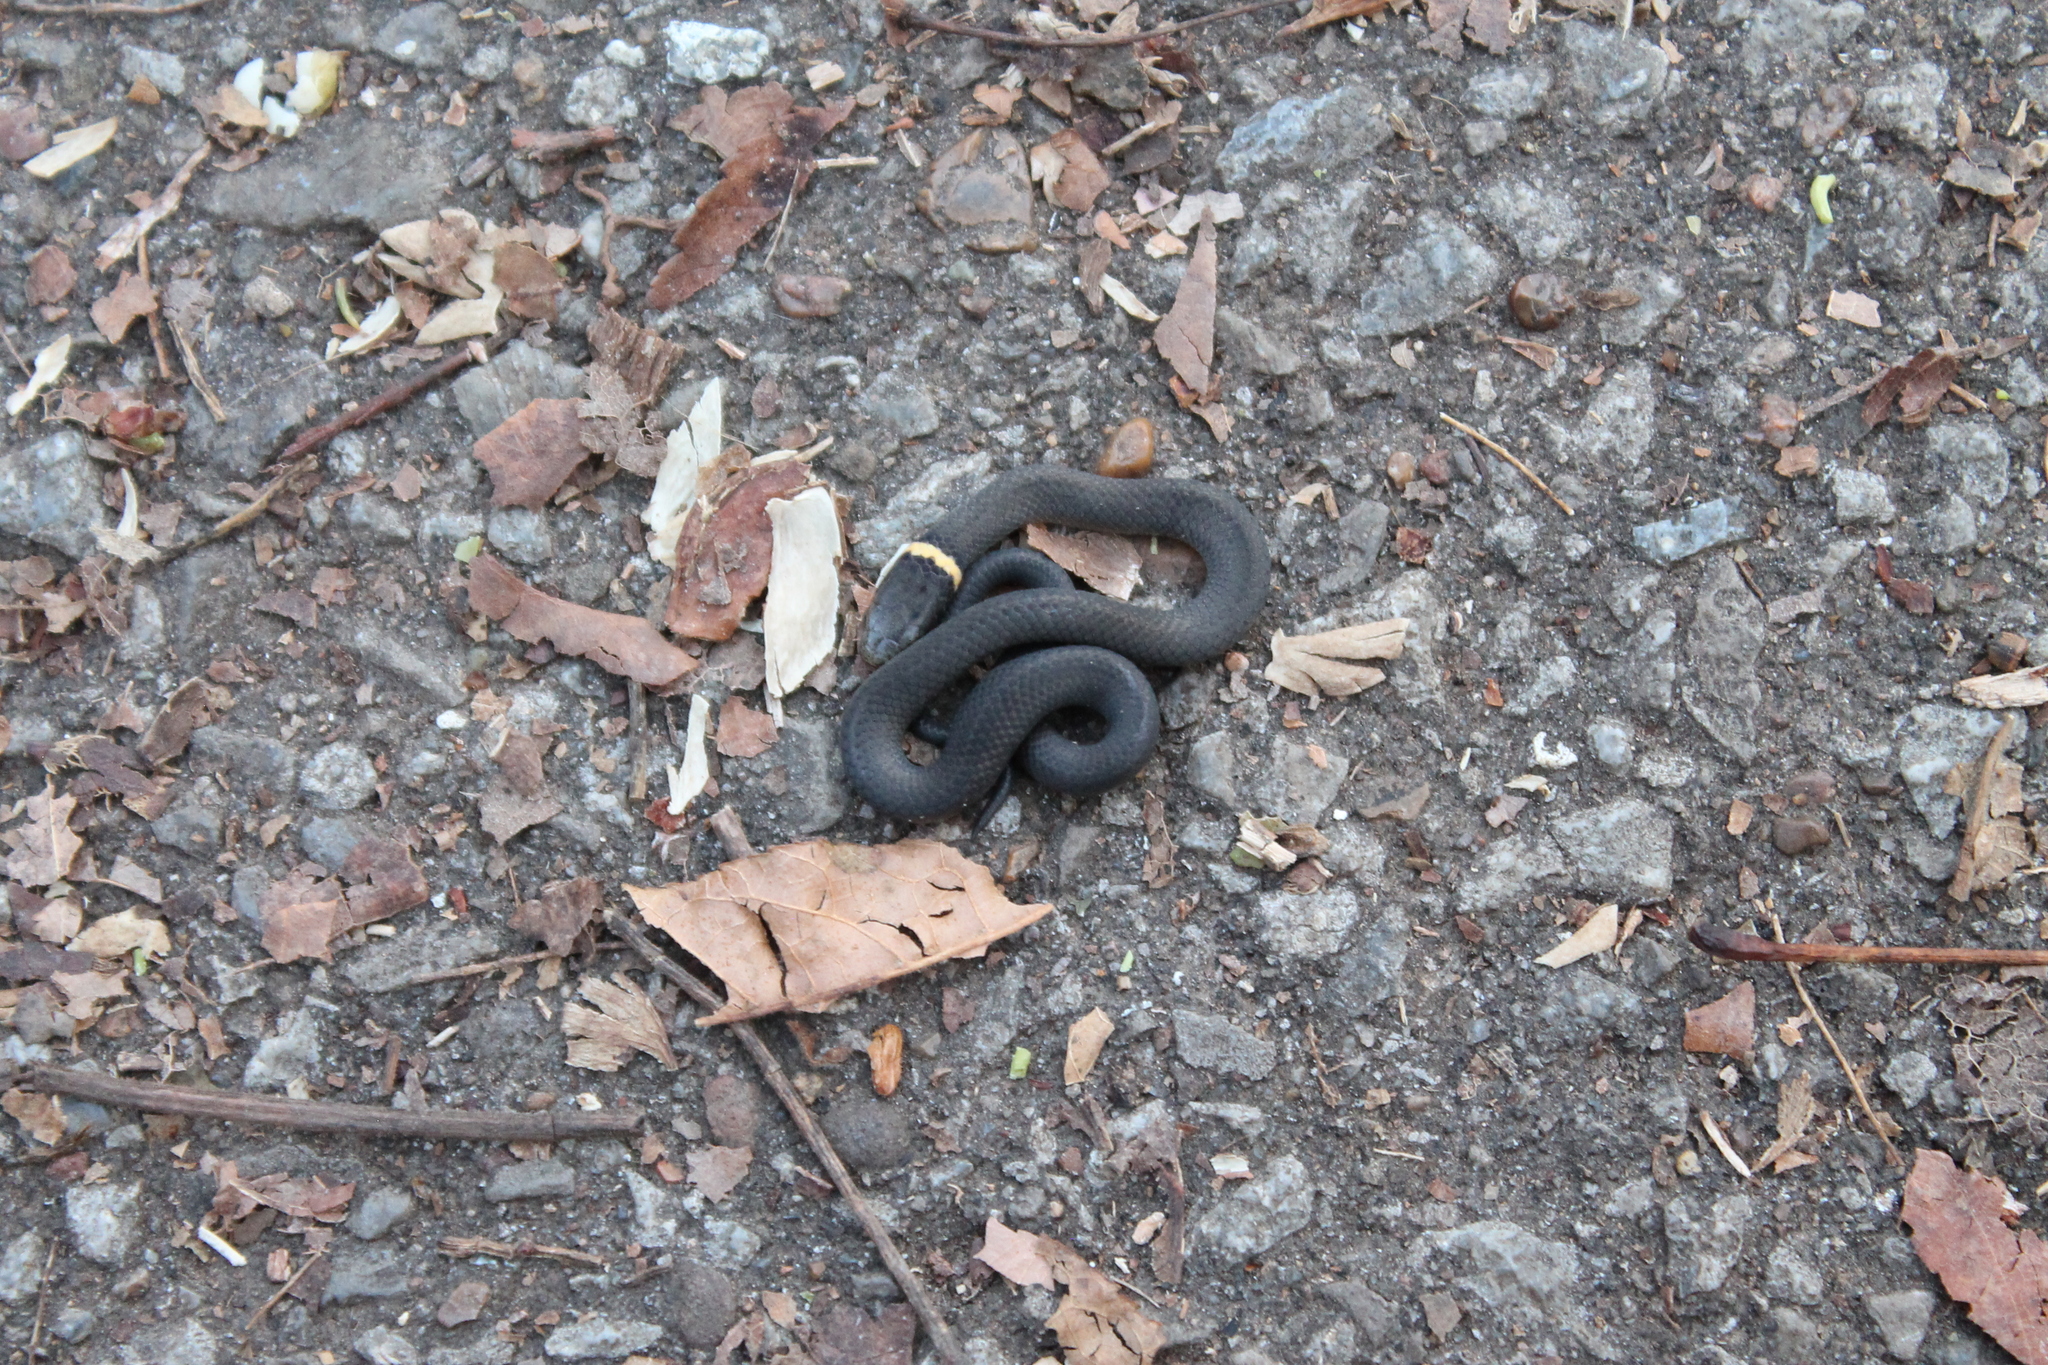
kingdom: Animalia
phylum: Chordata
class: Squamata
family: Colubridae
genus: Diadophis
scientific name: Diadophis punctatus
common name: Ringneck snake
